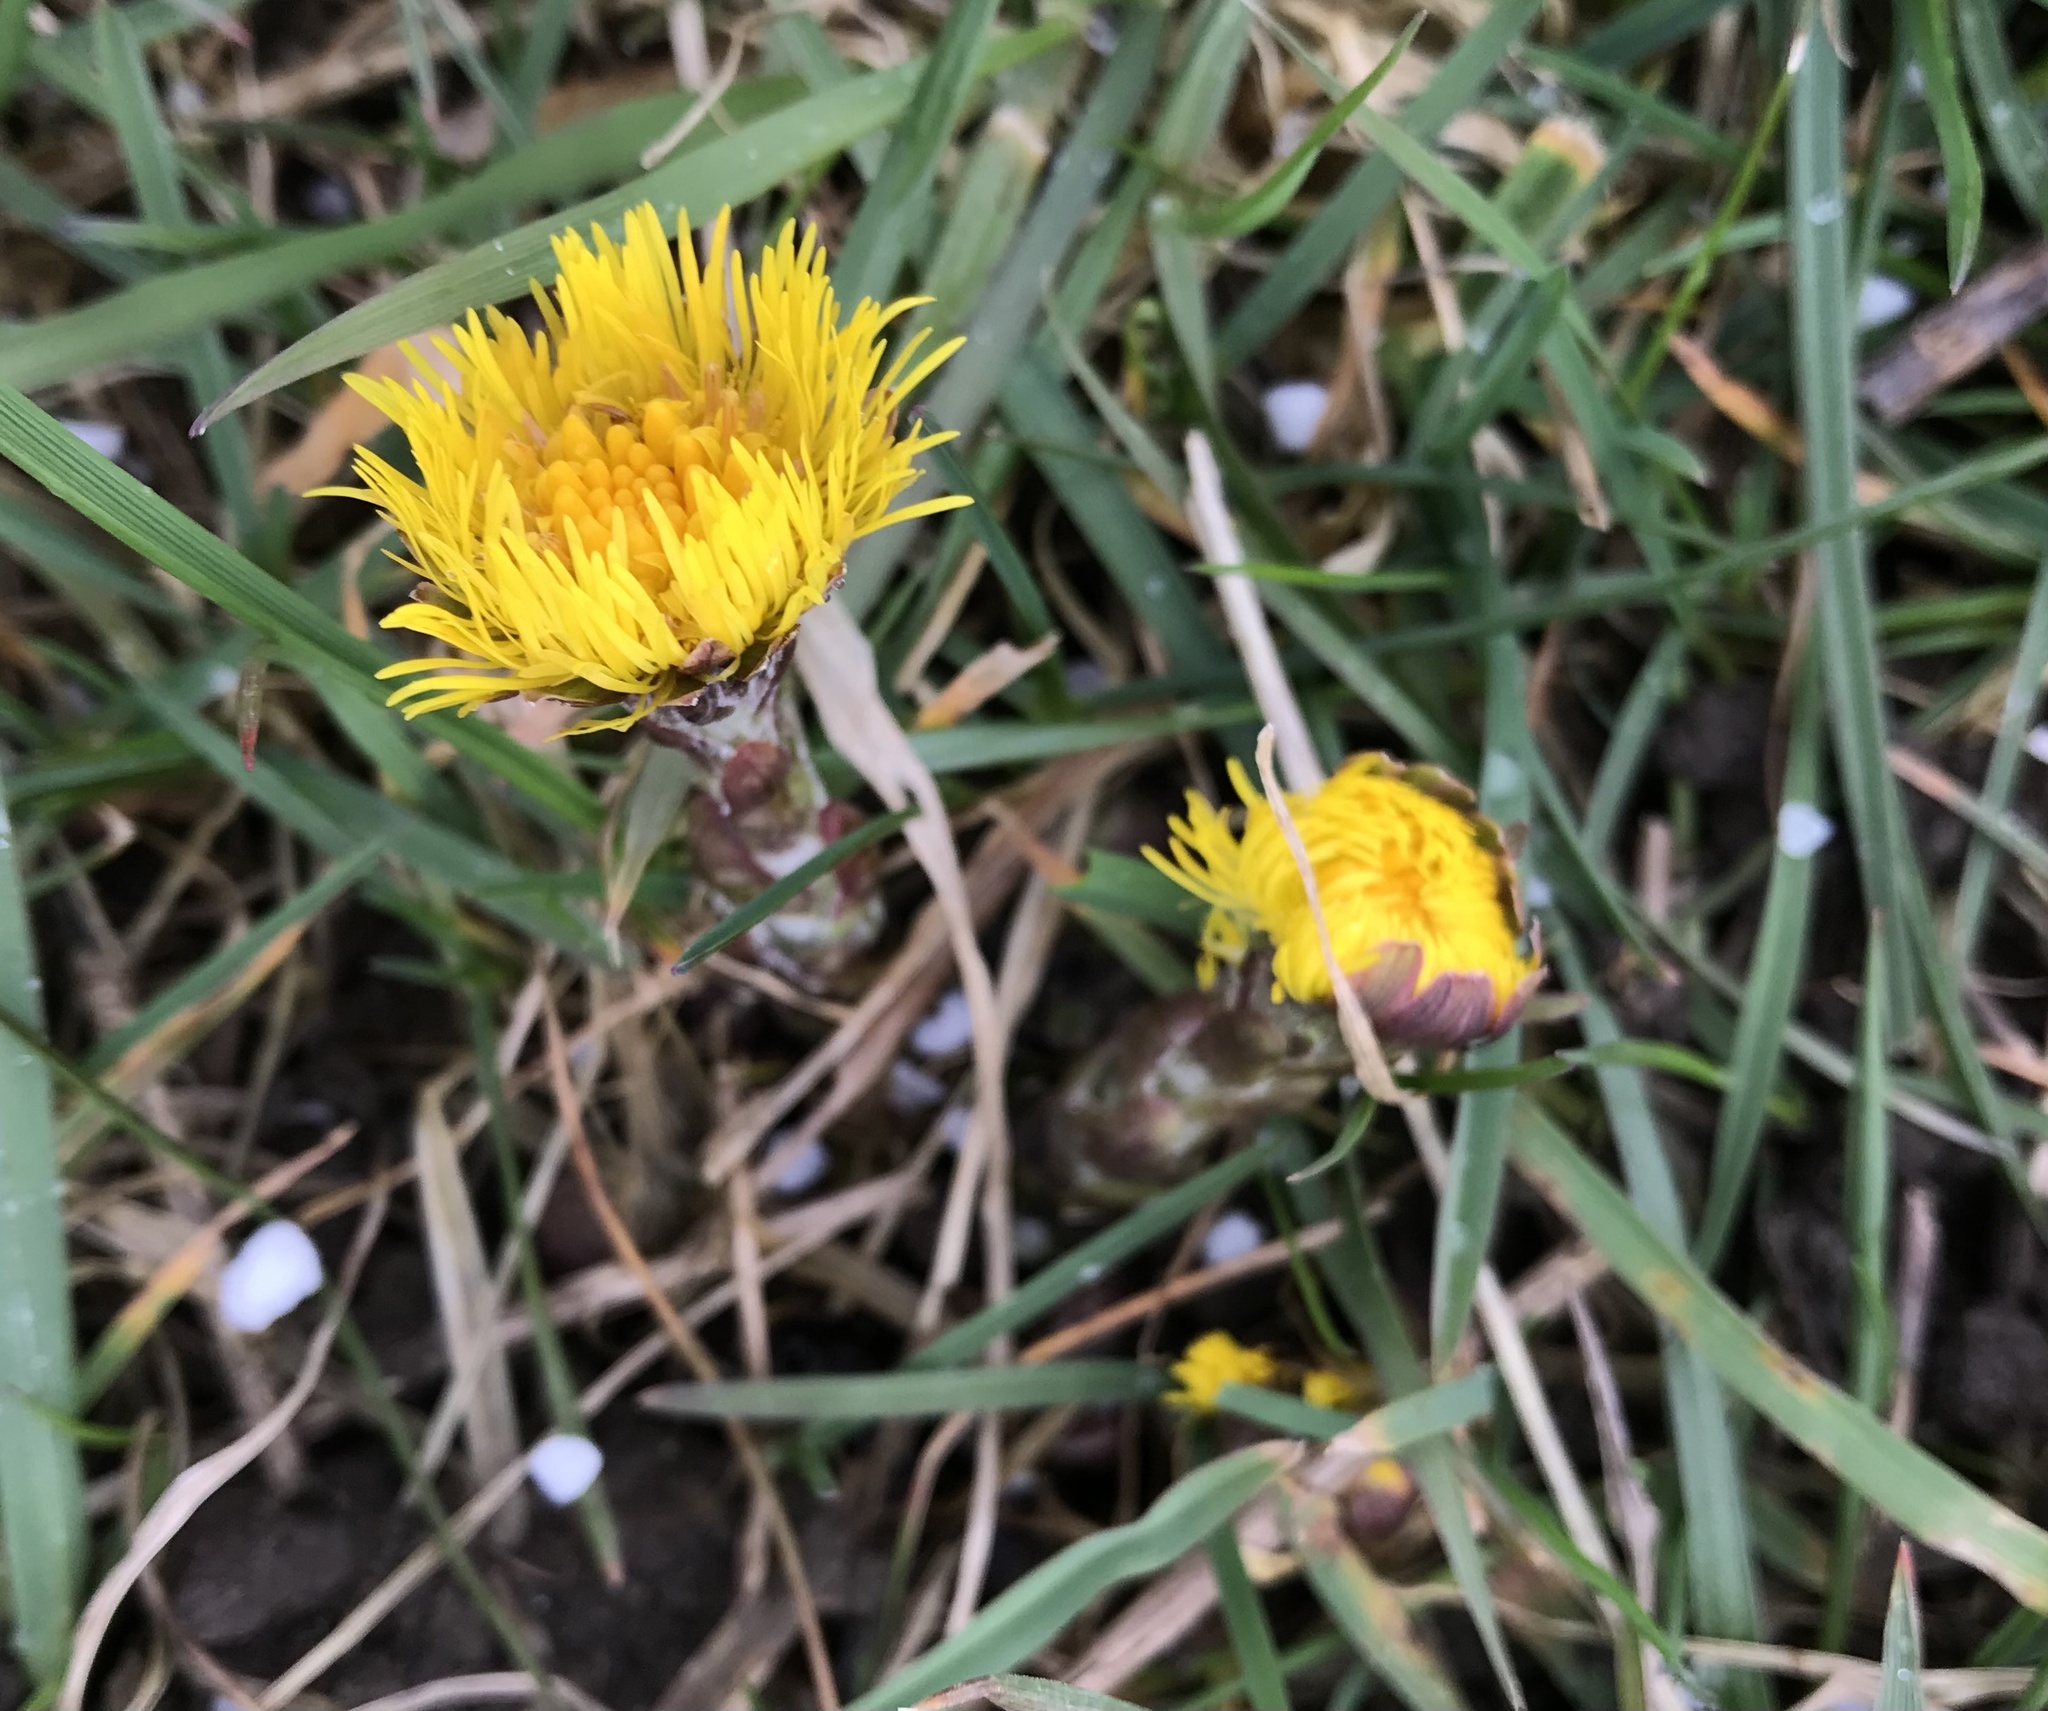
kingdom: Plantae
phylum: Tracheophyta
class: Magnoliopsida
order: Asterales
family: Asteraceae
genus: Tussilago
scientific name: Tussilago farfara
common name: Coltsfoot
